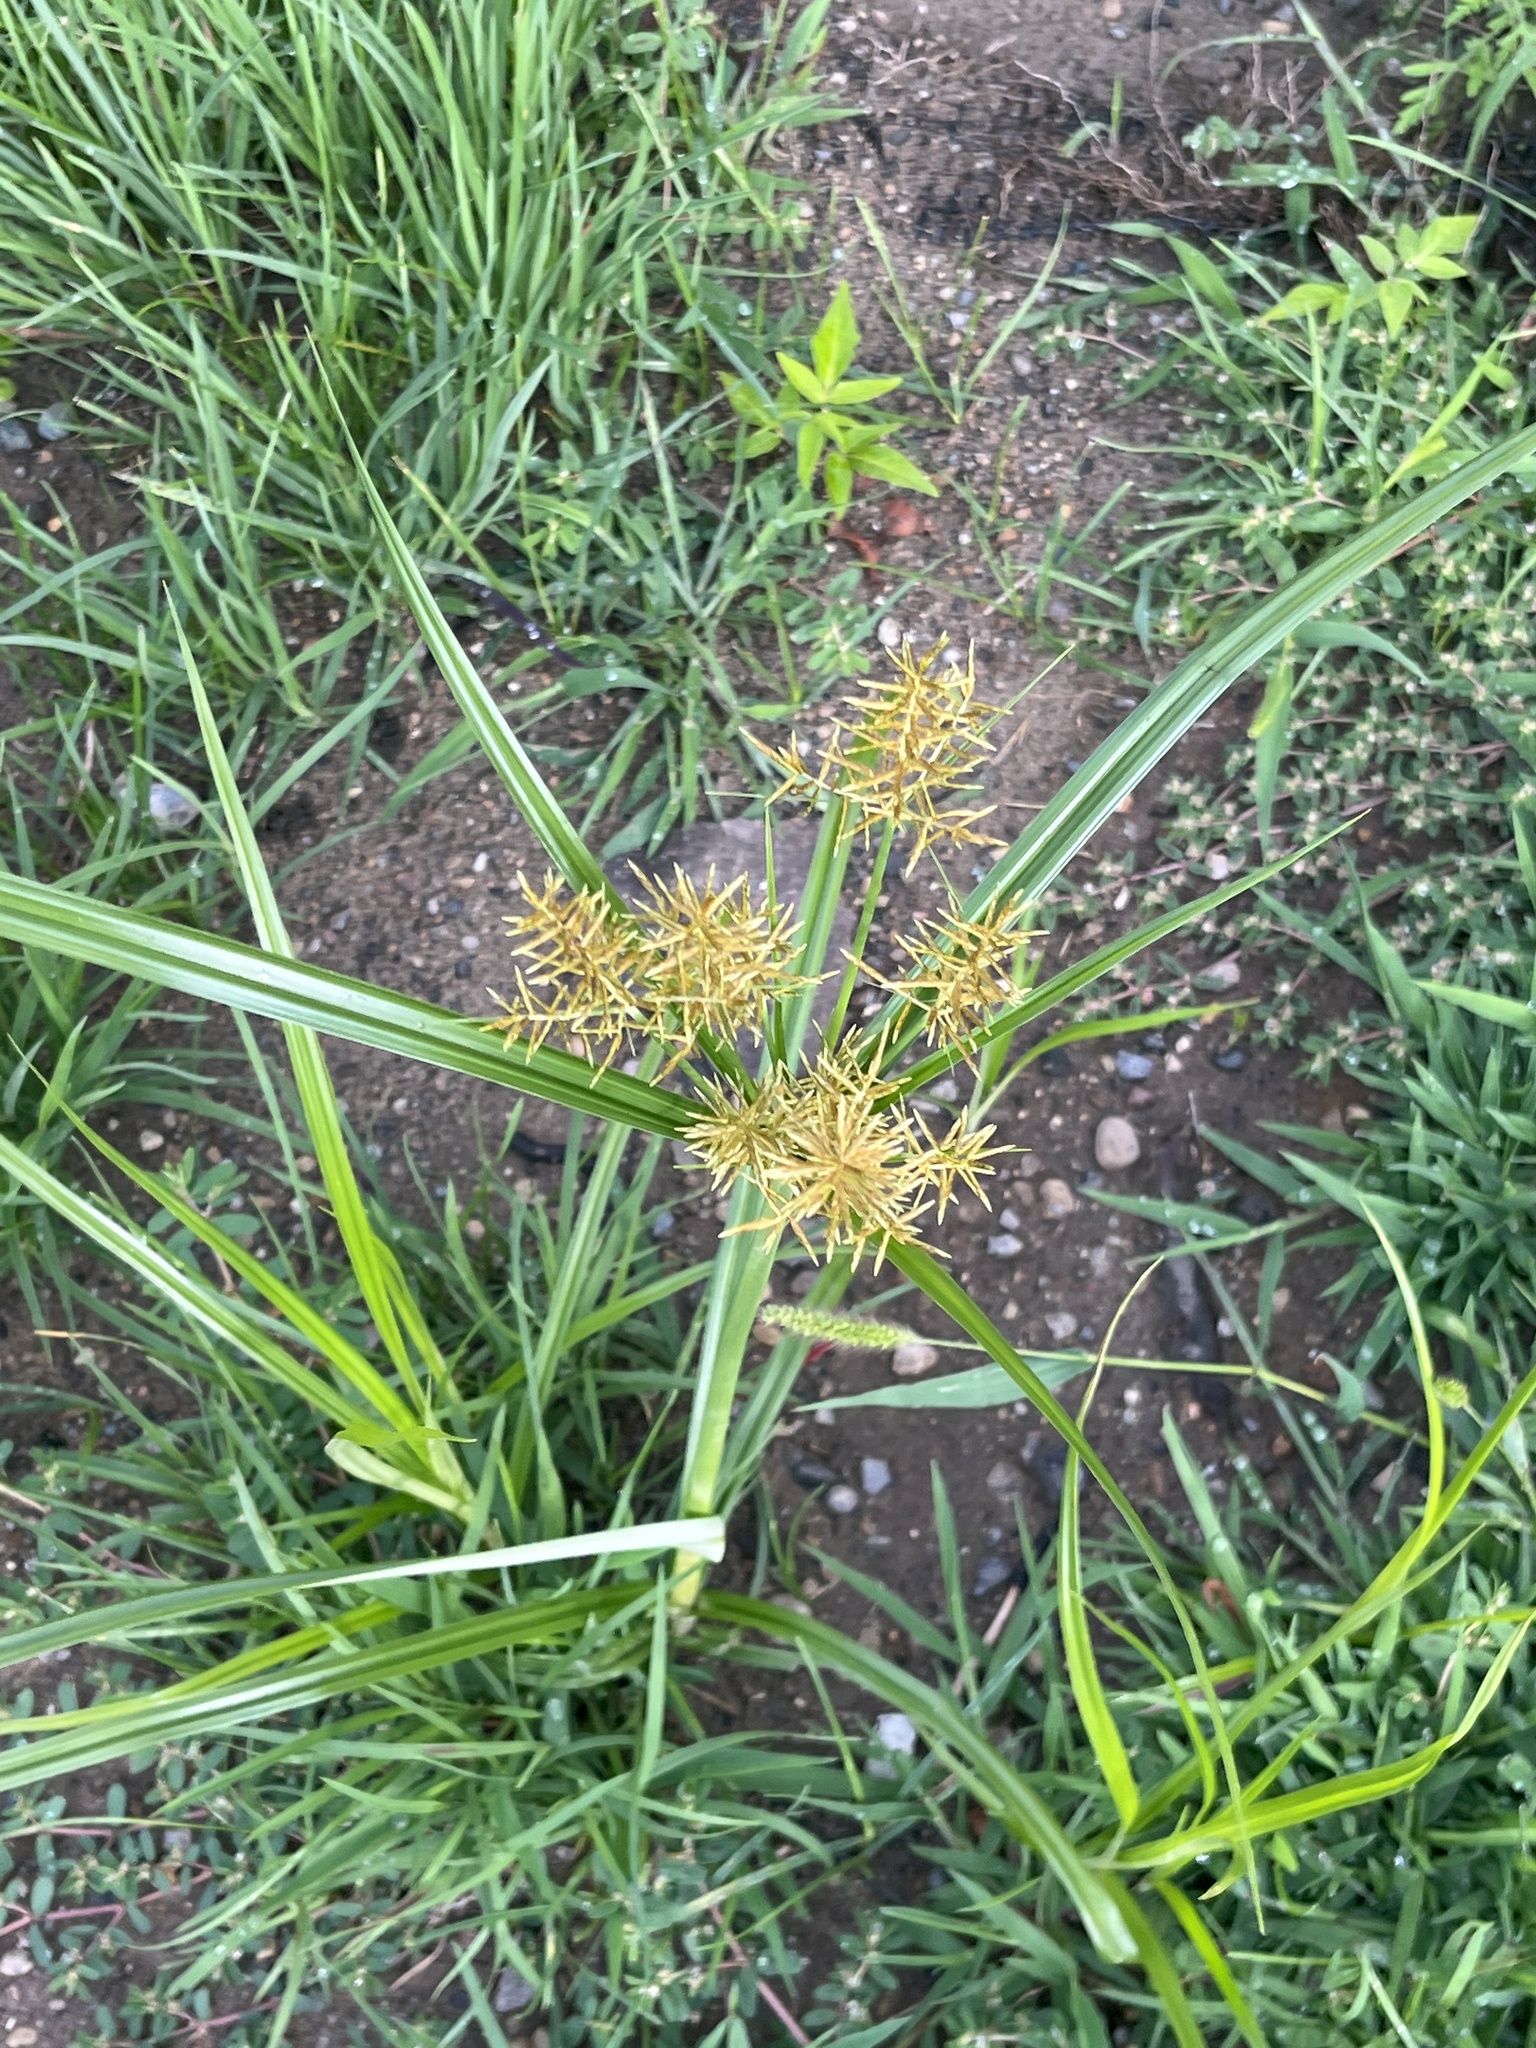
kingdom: Plantae
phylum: Tracheophyta
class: Liliopsida
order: Poales
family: Cyperaceae
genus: Cyperus
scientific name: Cyperus esculentus
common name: Yellow nutsedge
